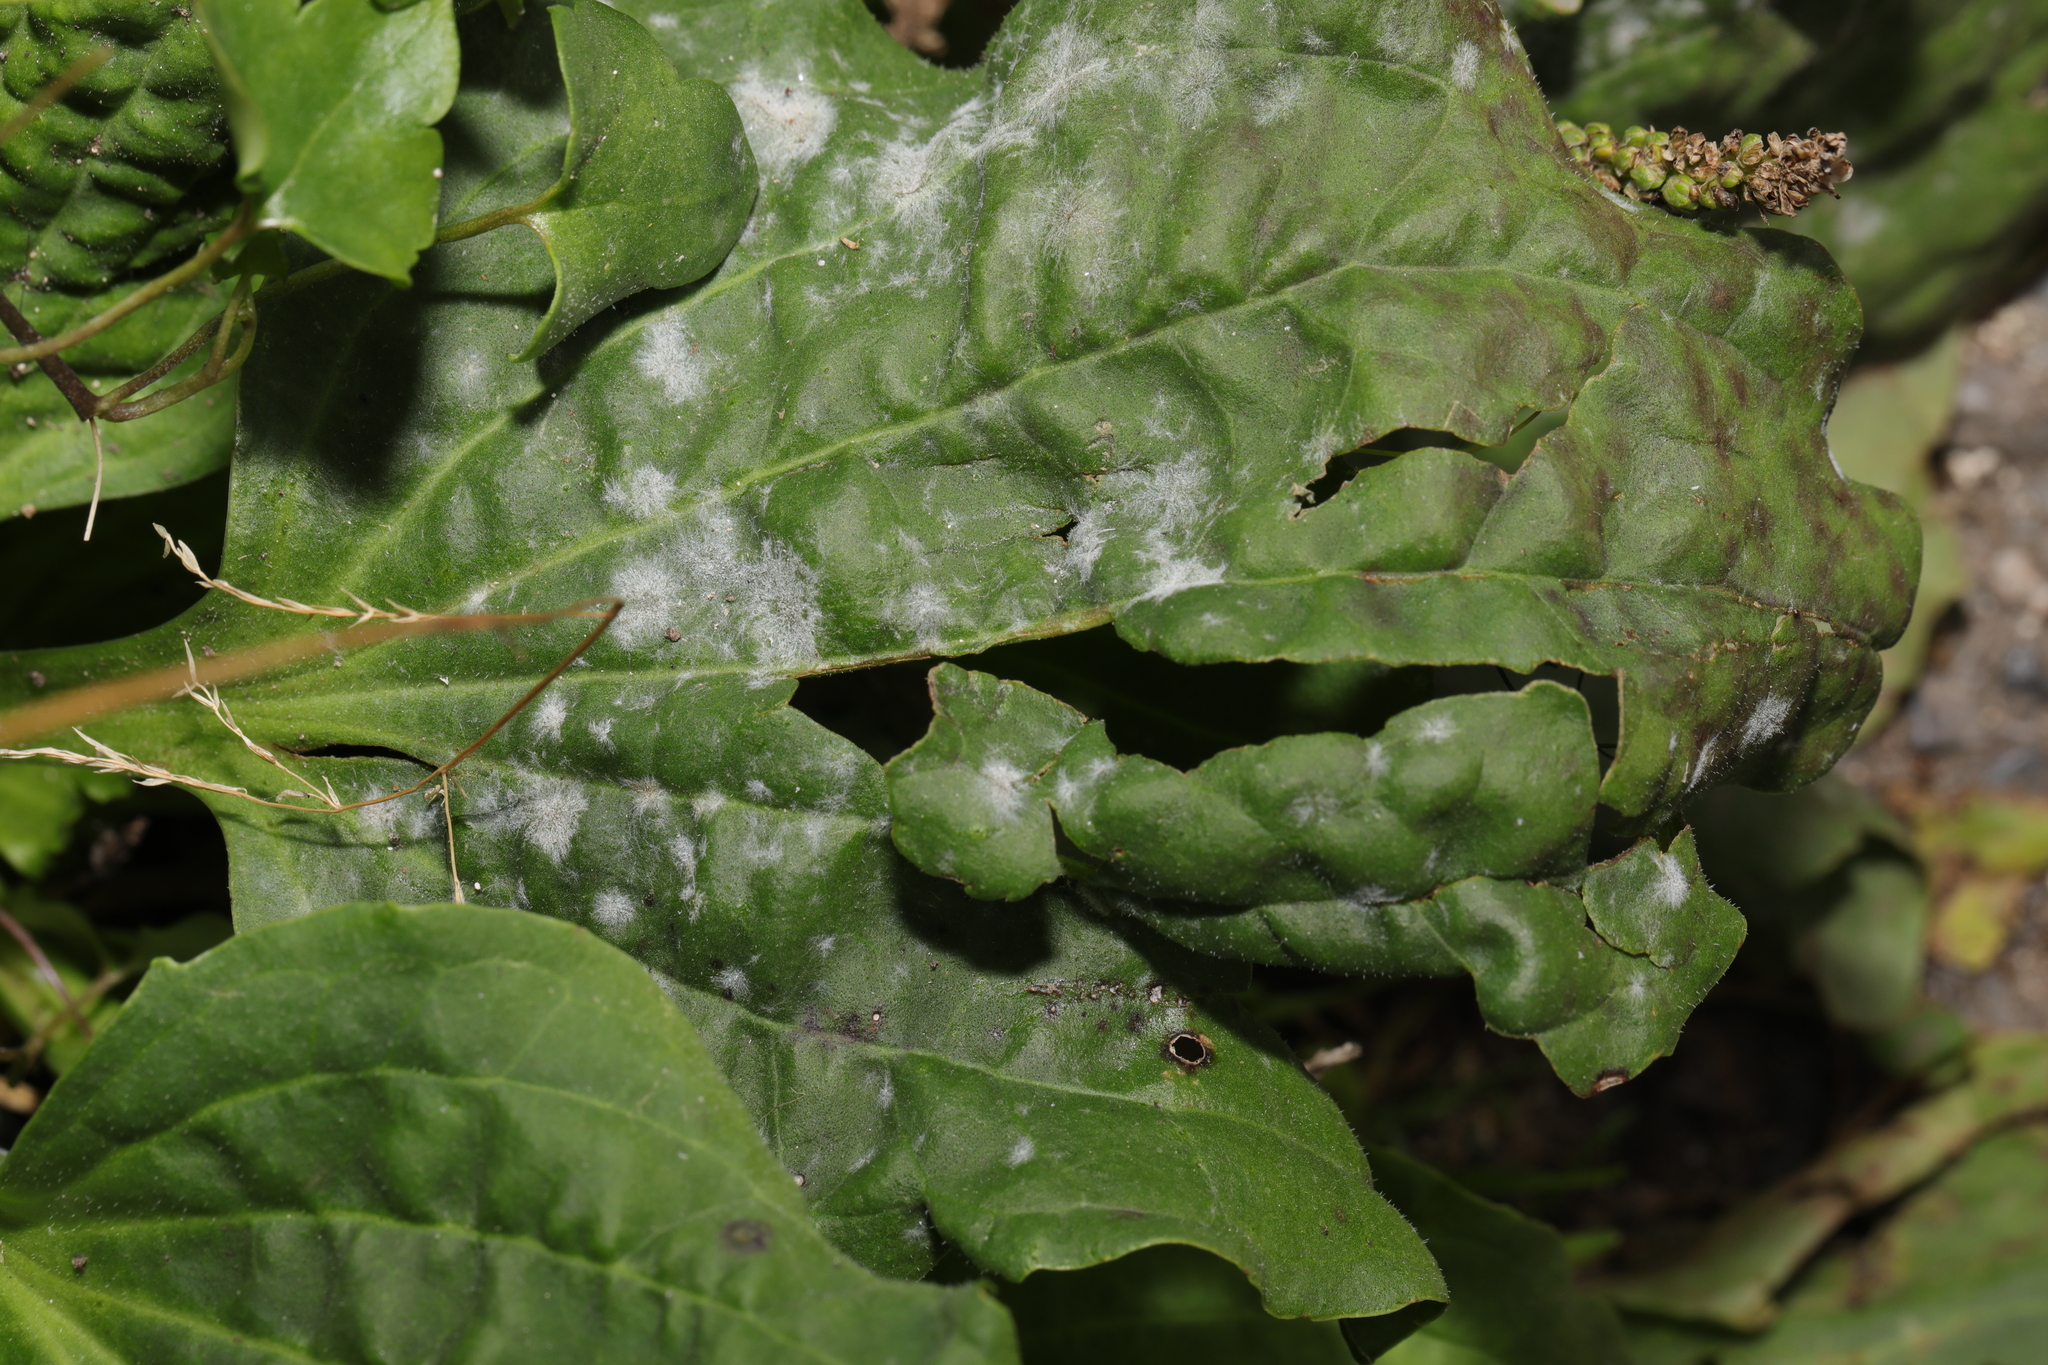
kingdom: Plantae
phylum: Tracheophyta
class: Magnoliopsida
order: Lamiales
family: Plantaginaceae
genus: Plantago
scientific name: Plantago major
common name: Common plantain
